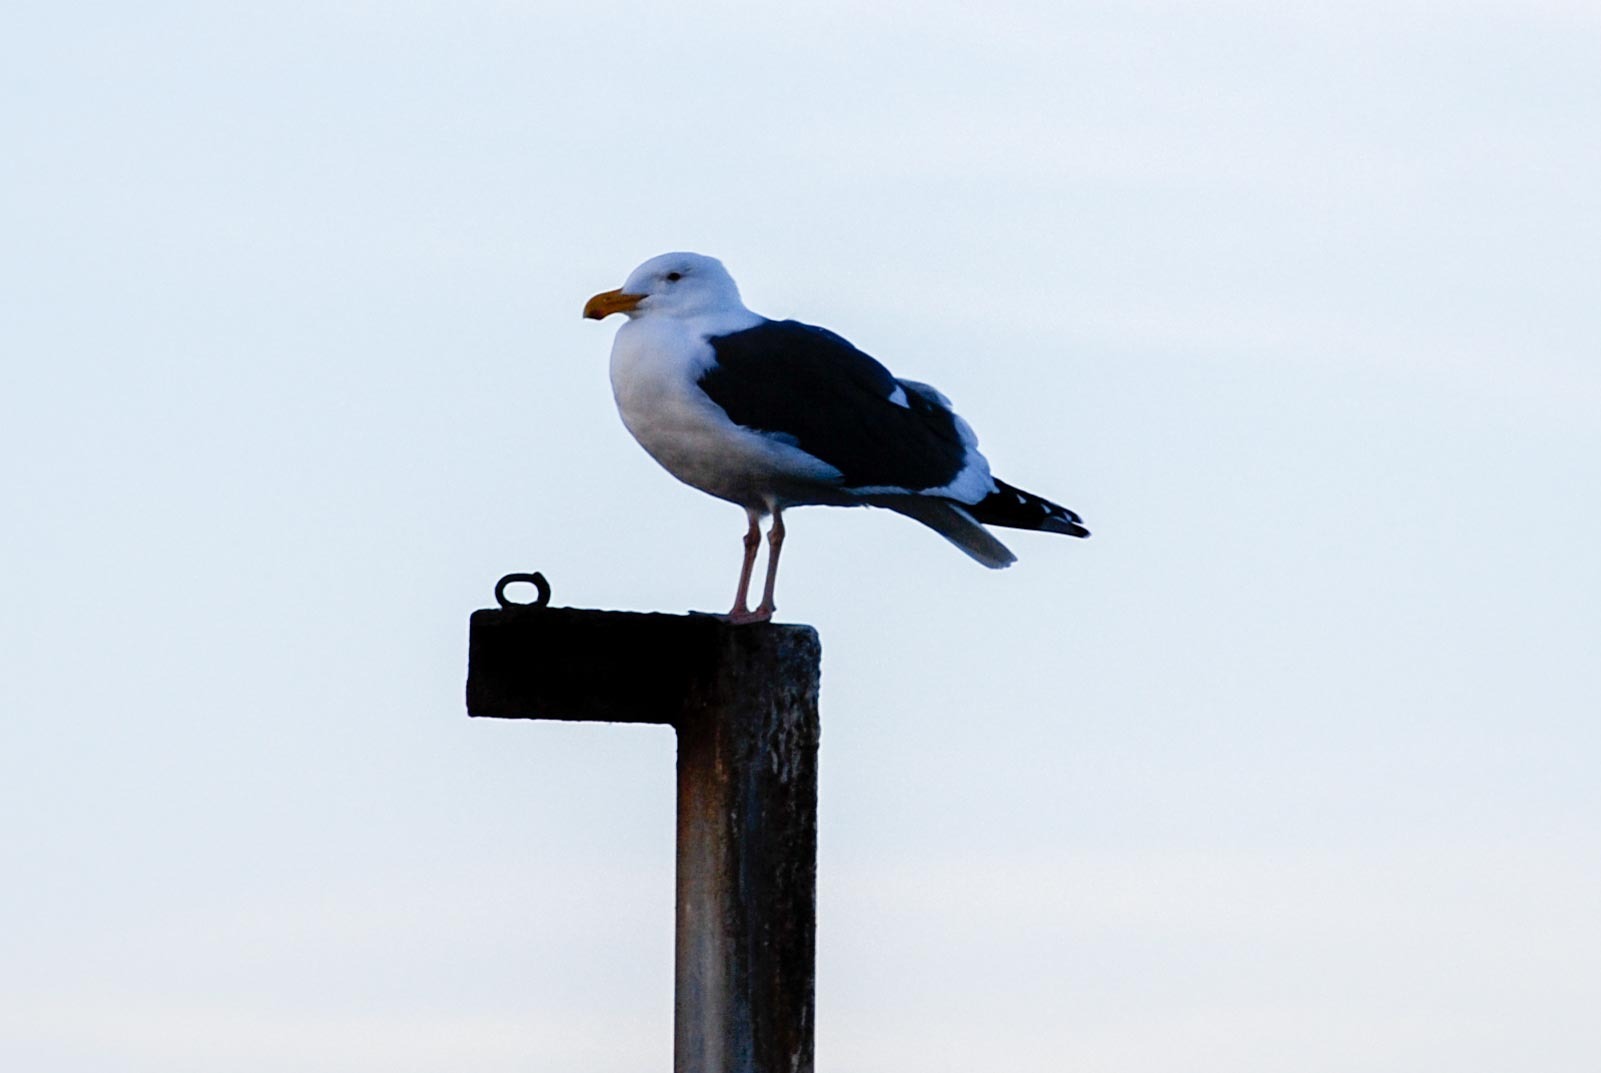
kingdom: Animalia
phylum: Chordata
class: Aves
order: Charadriiformes
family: Laridae
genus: Larus
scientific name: Larus occidentalis
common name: Western gull
